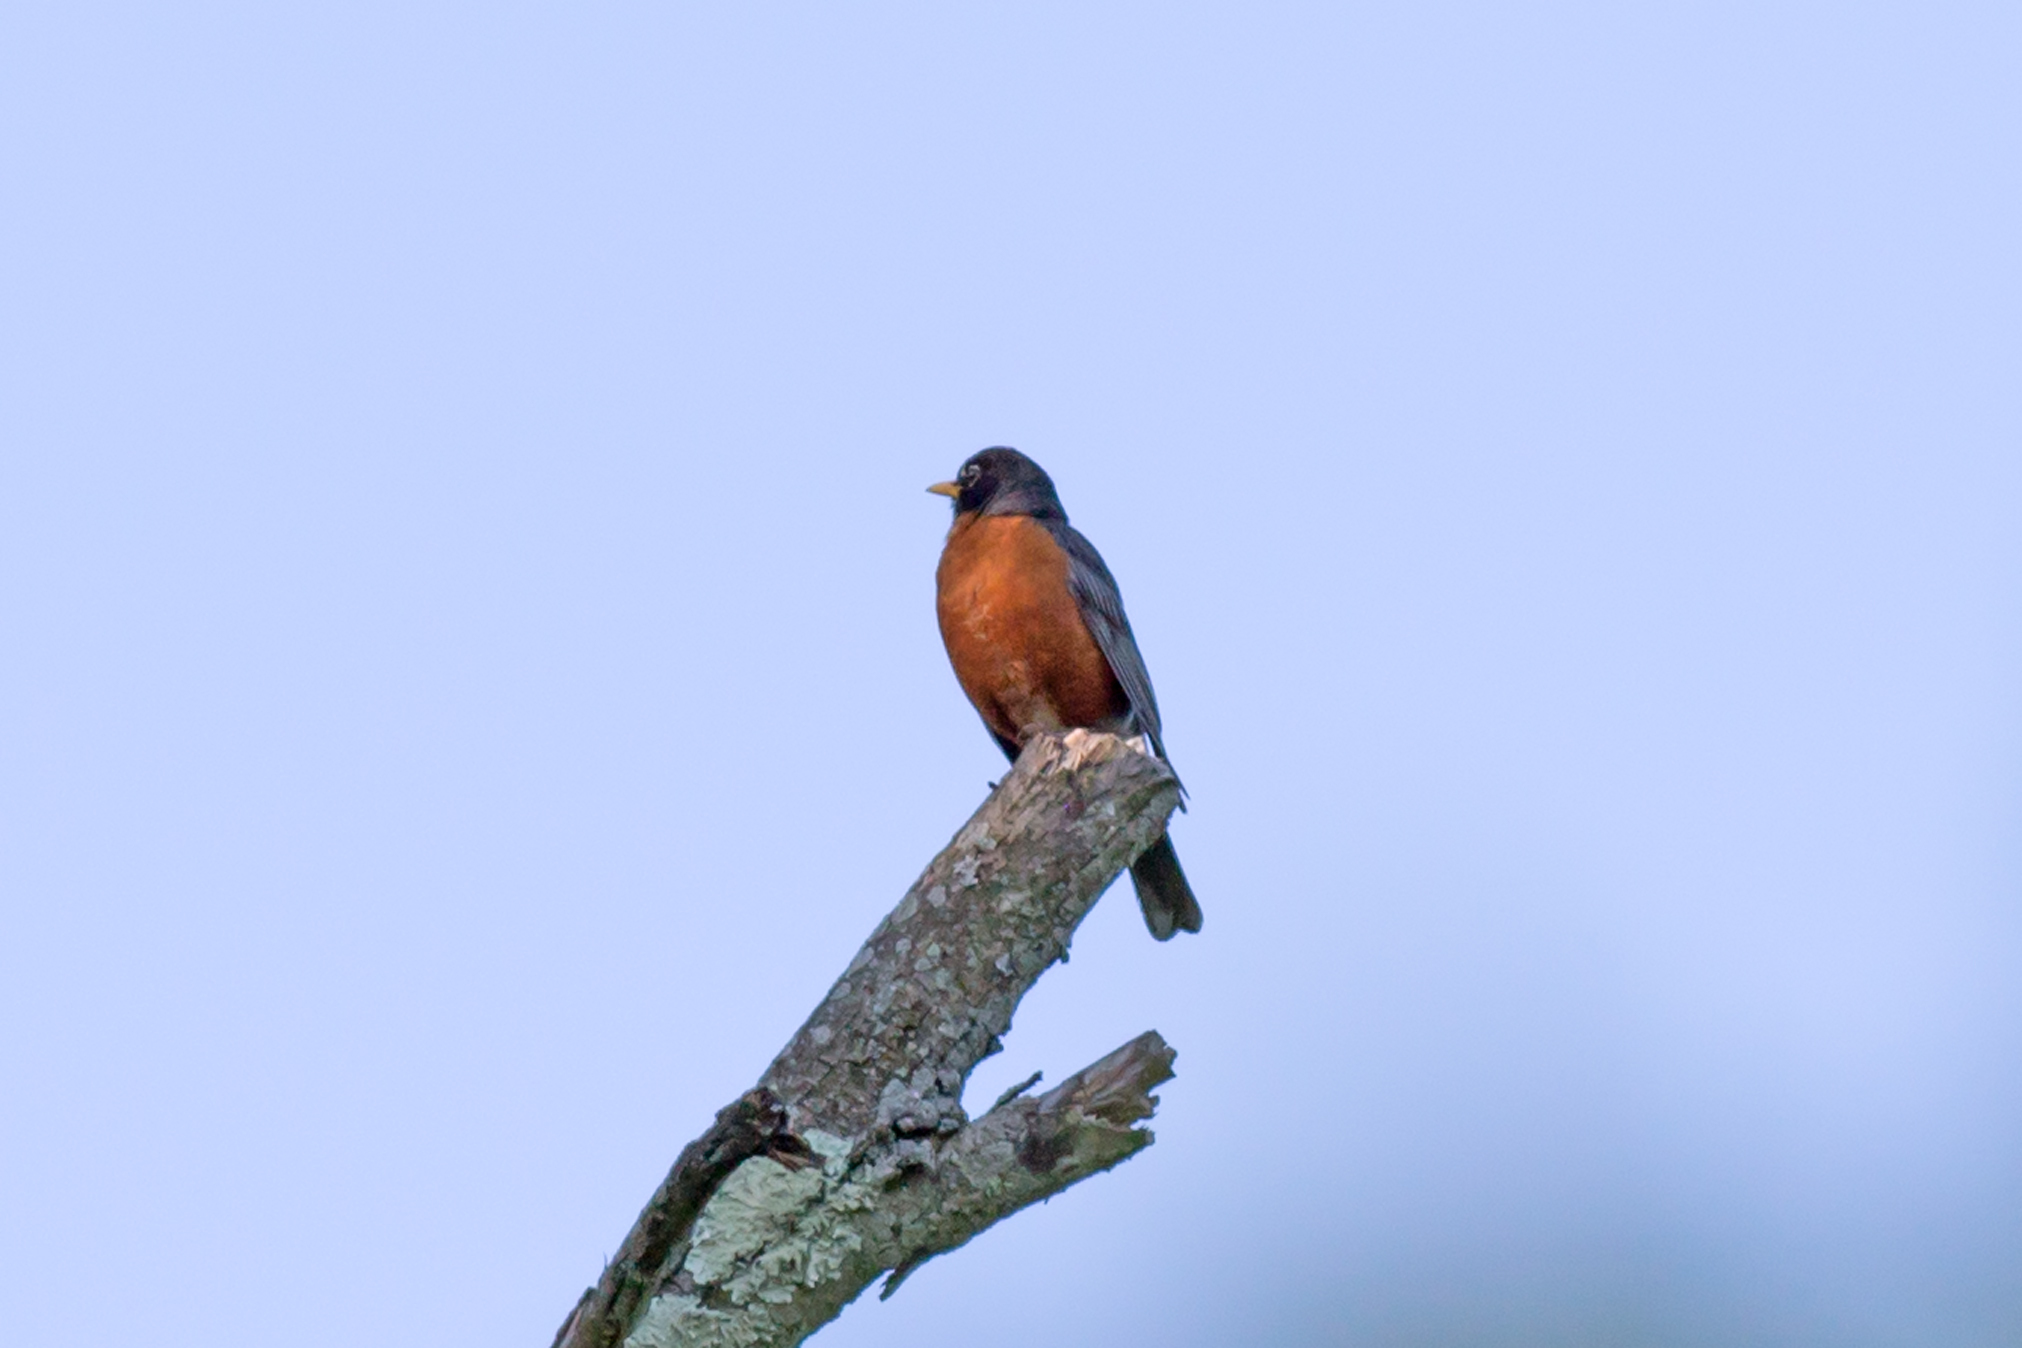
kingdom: Animalia
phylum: Chordata
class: Aves
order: Passeriformes
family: Turdidae
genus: Turdus
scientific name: Turdus migratorius
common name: American robin
